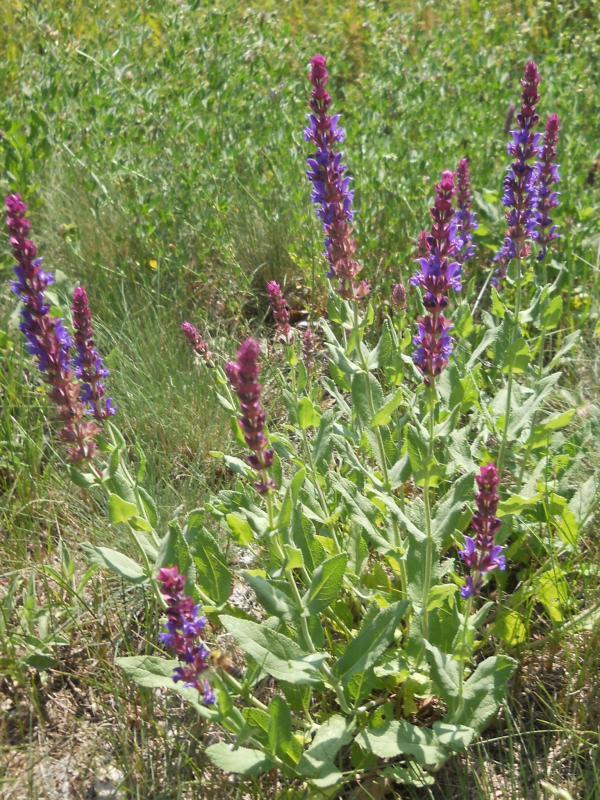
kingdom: Plantae
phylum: Tracheophyta
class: Magnoliopsida
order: Lamiales
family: Lamiaceae
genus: Salvia
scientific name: Salvia nemorosa
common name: Balkan clary
